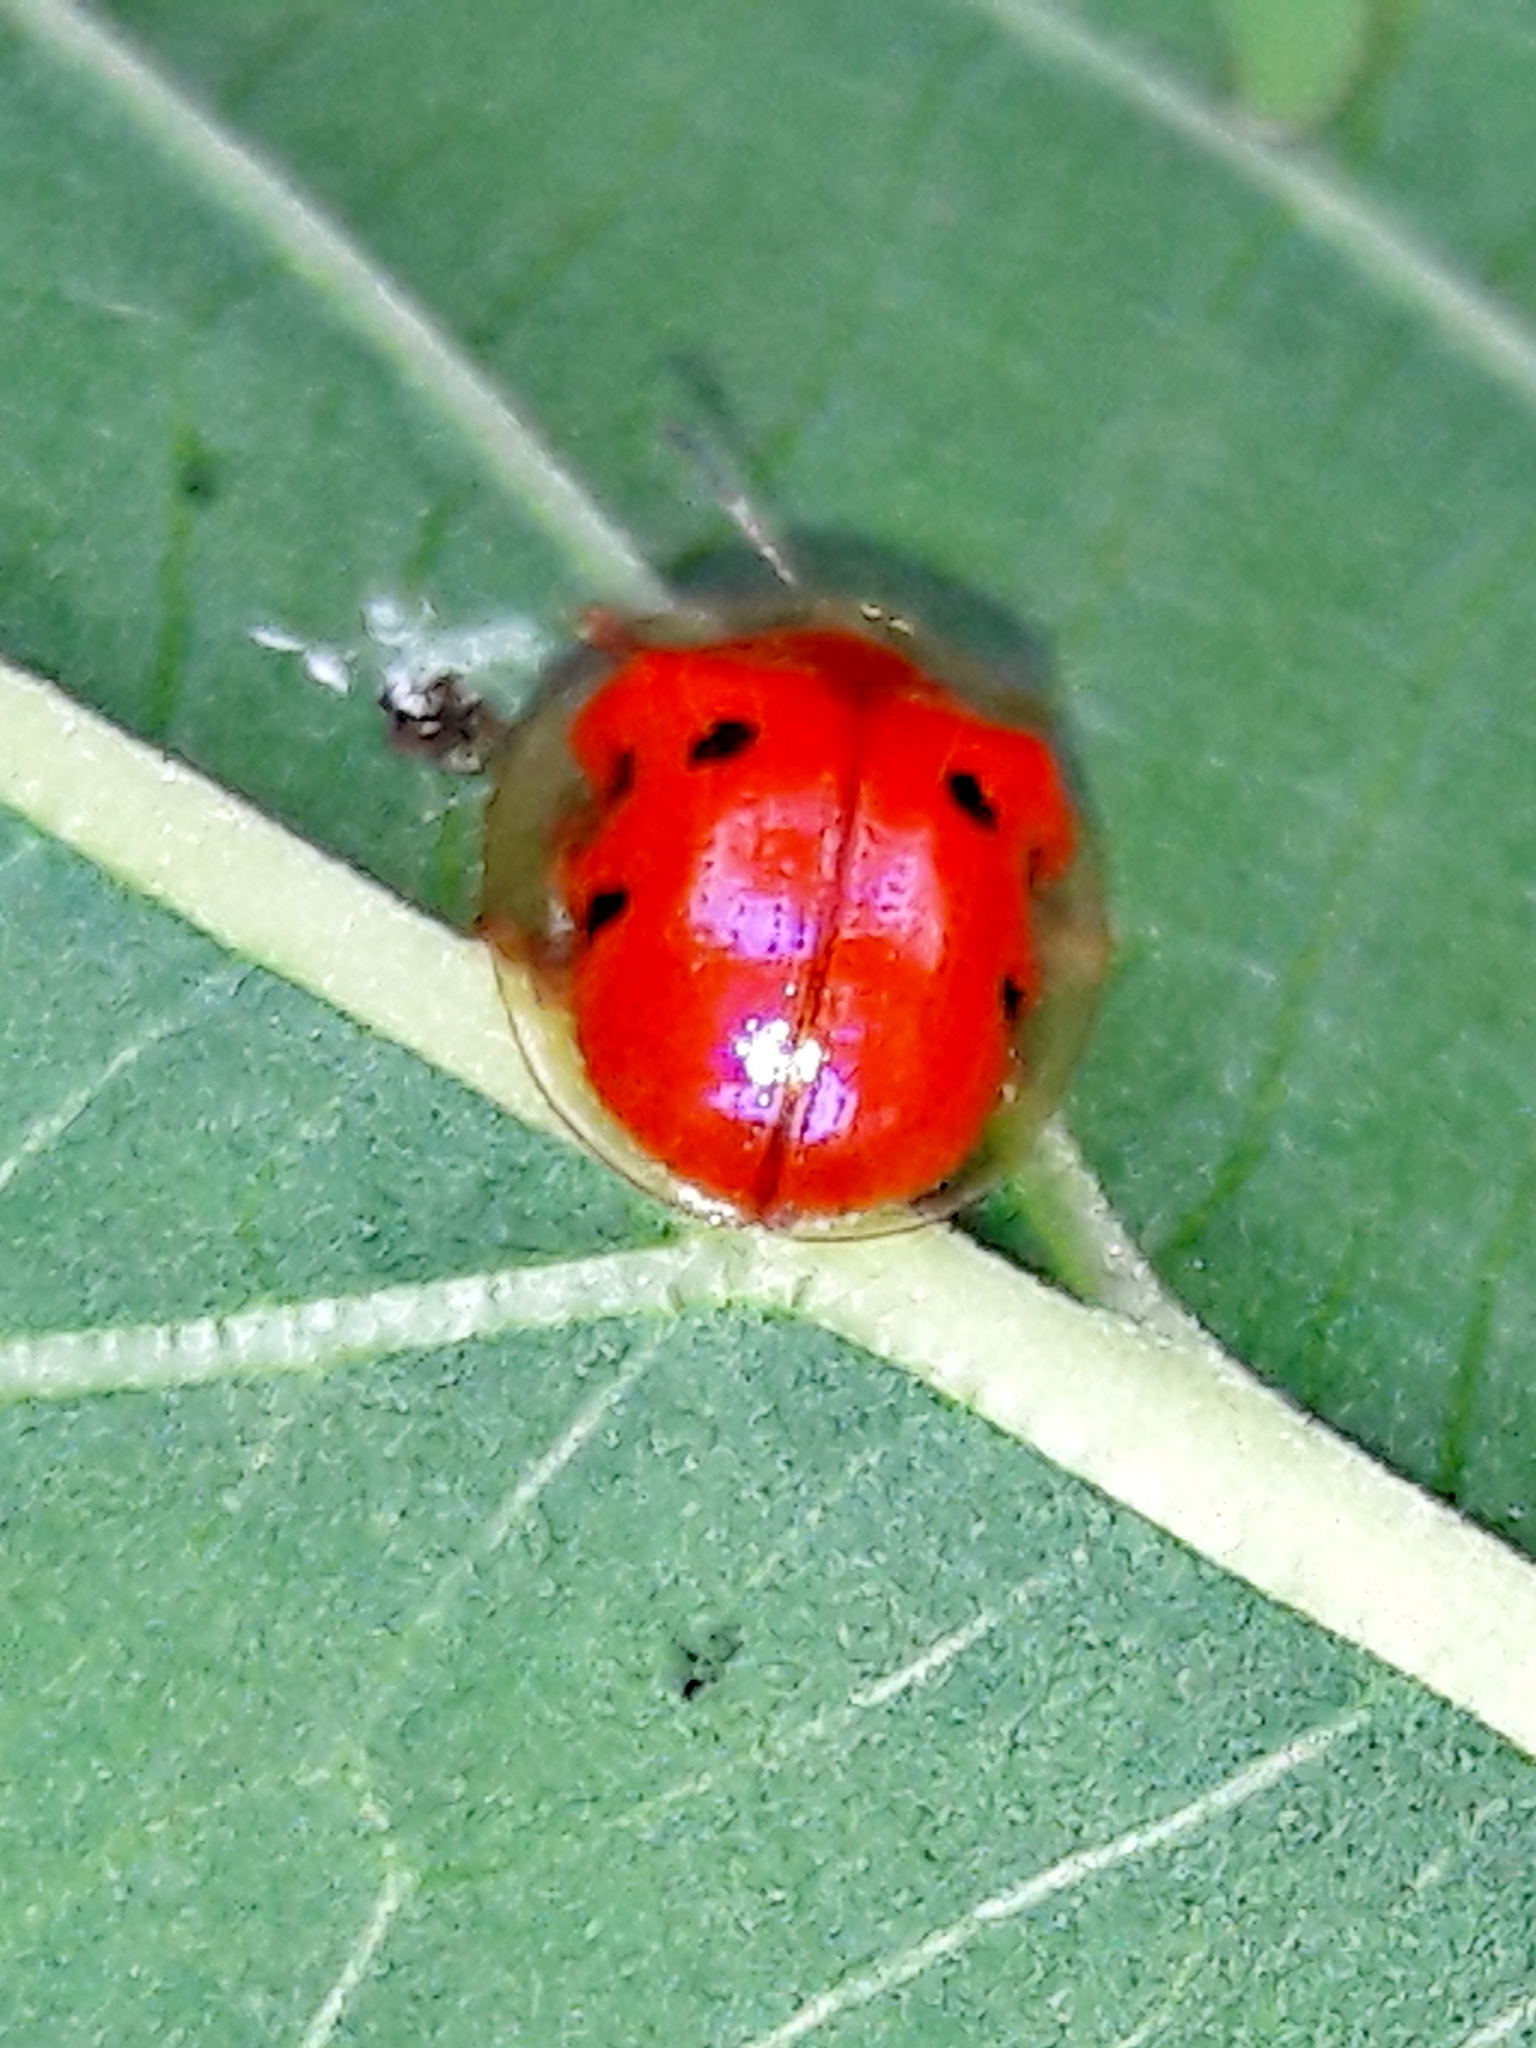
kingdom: Animalia
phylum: Arthropoda
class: Insecta
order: Coleoptera
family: Chrysomelidae
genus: Charidotella
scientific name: Charidotella sexpunctata
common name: Golden tortoise beetle
